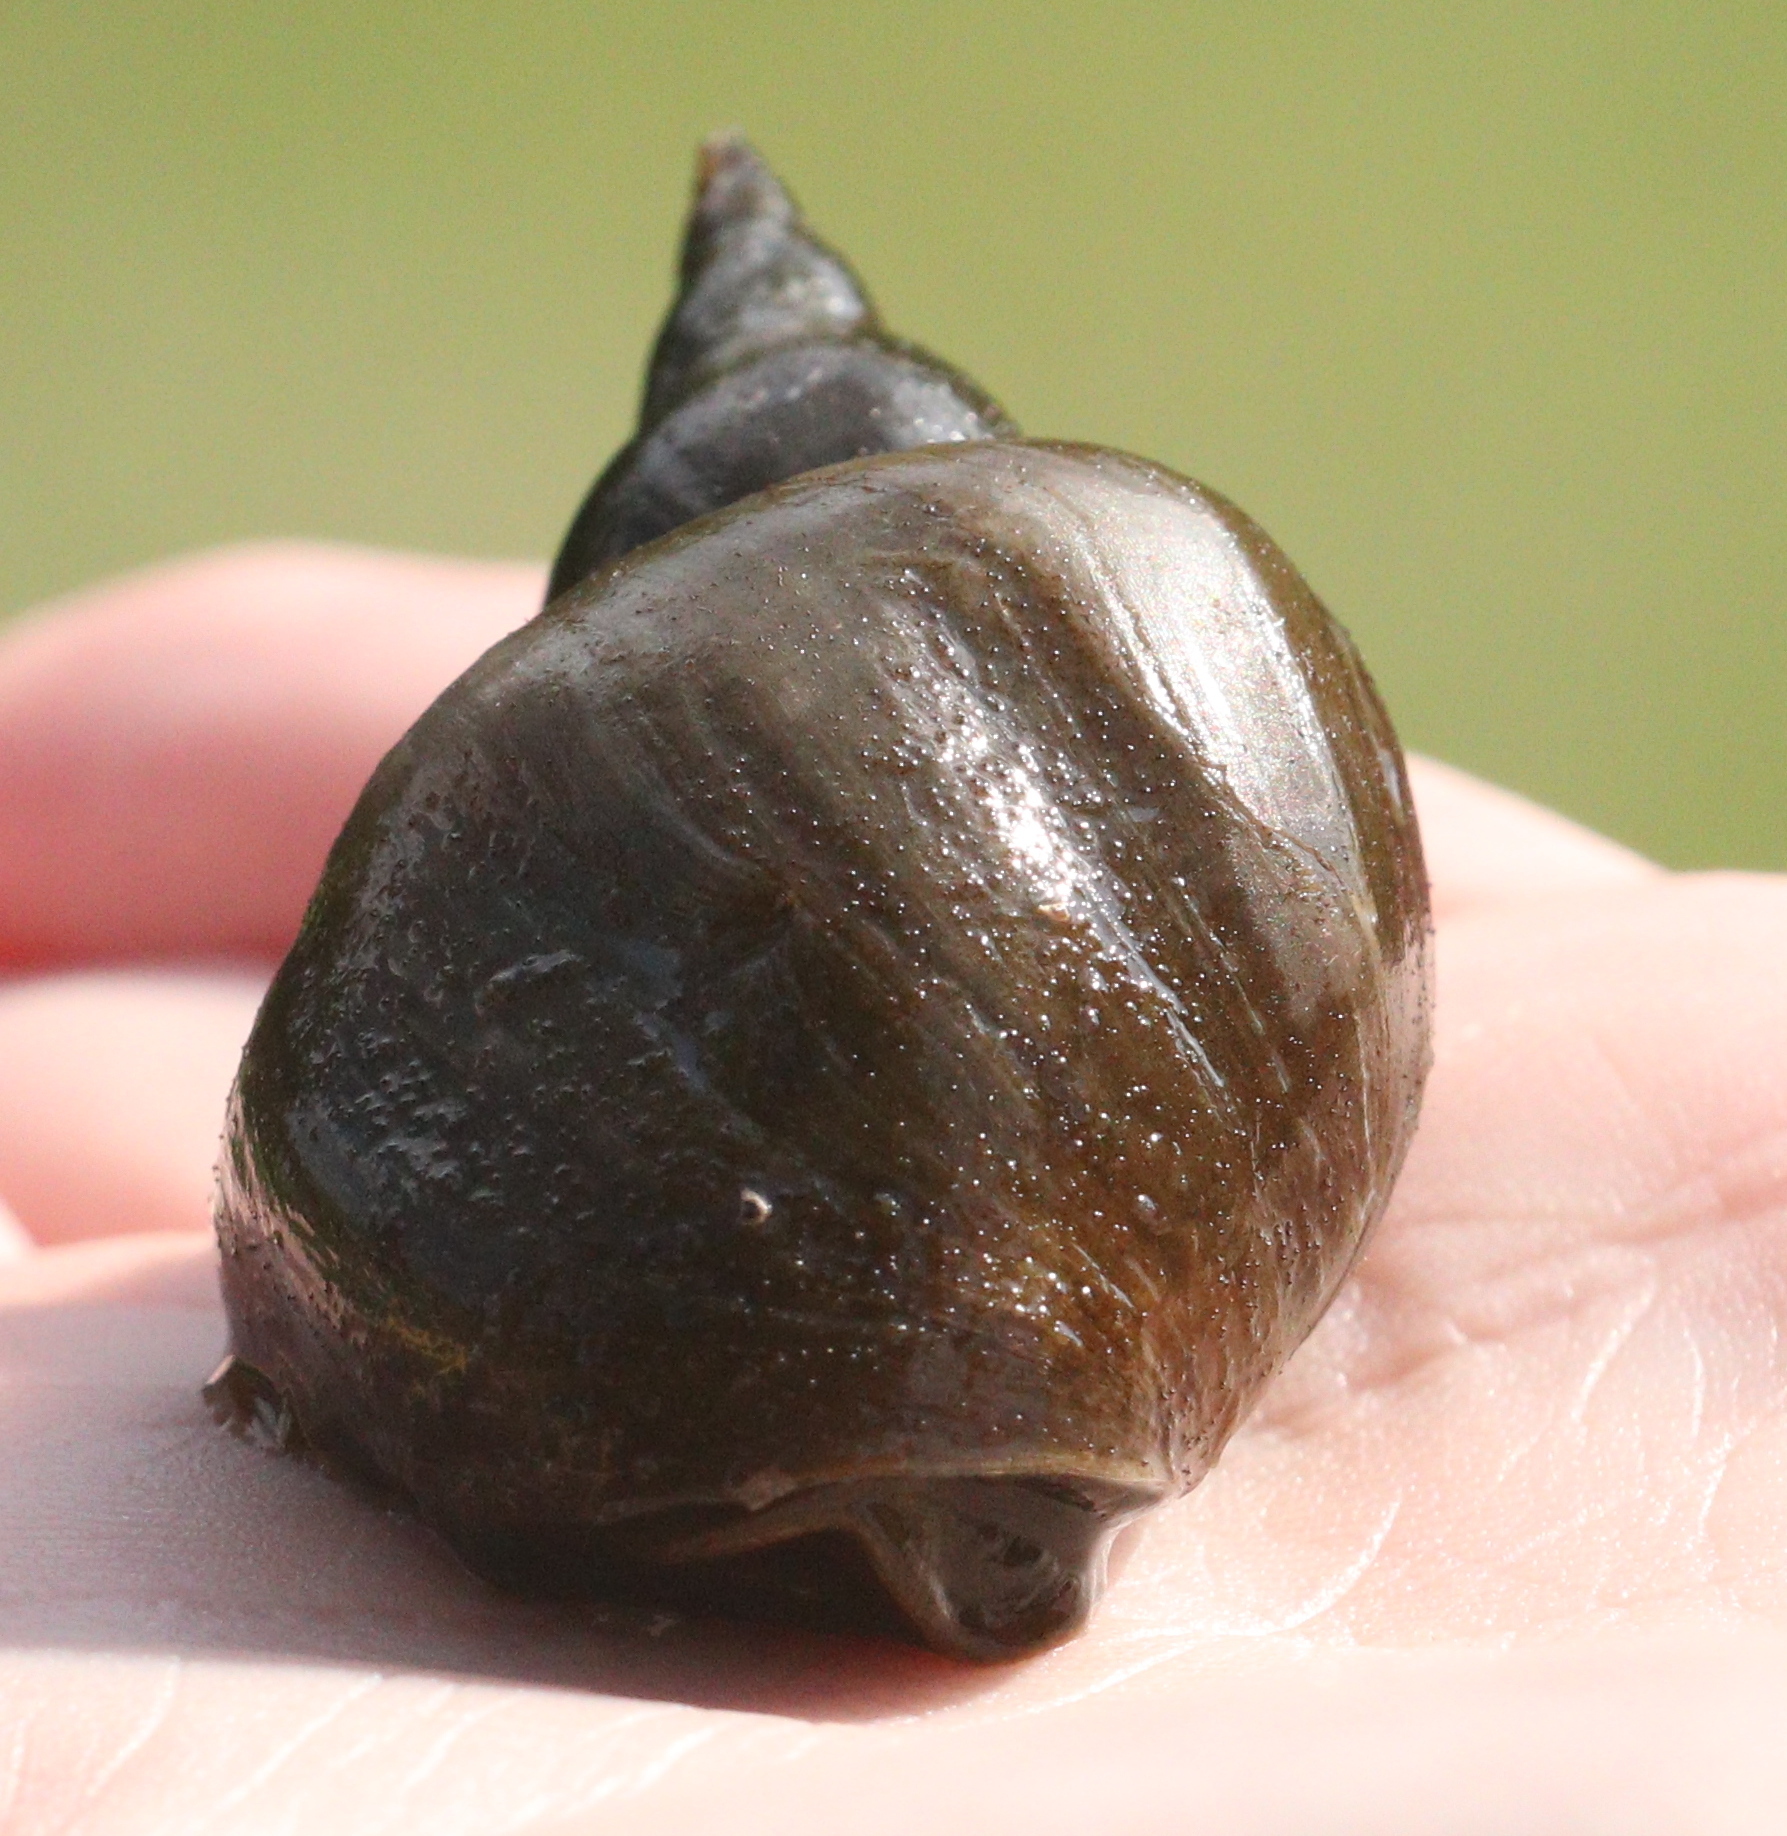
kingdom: Animalia
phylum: Mollusca
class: Gastropoda
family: Lymnaeidae
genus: Lymnaea
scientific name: Lymnaea stagnalis
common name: Great pond snail
